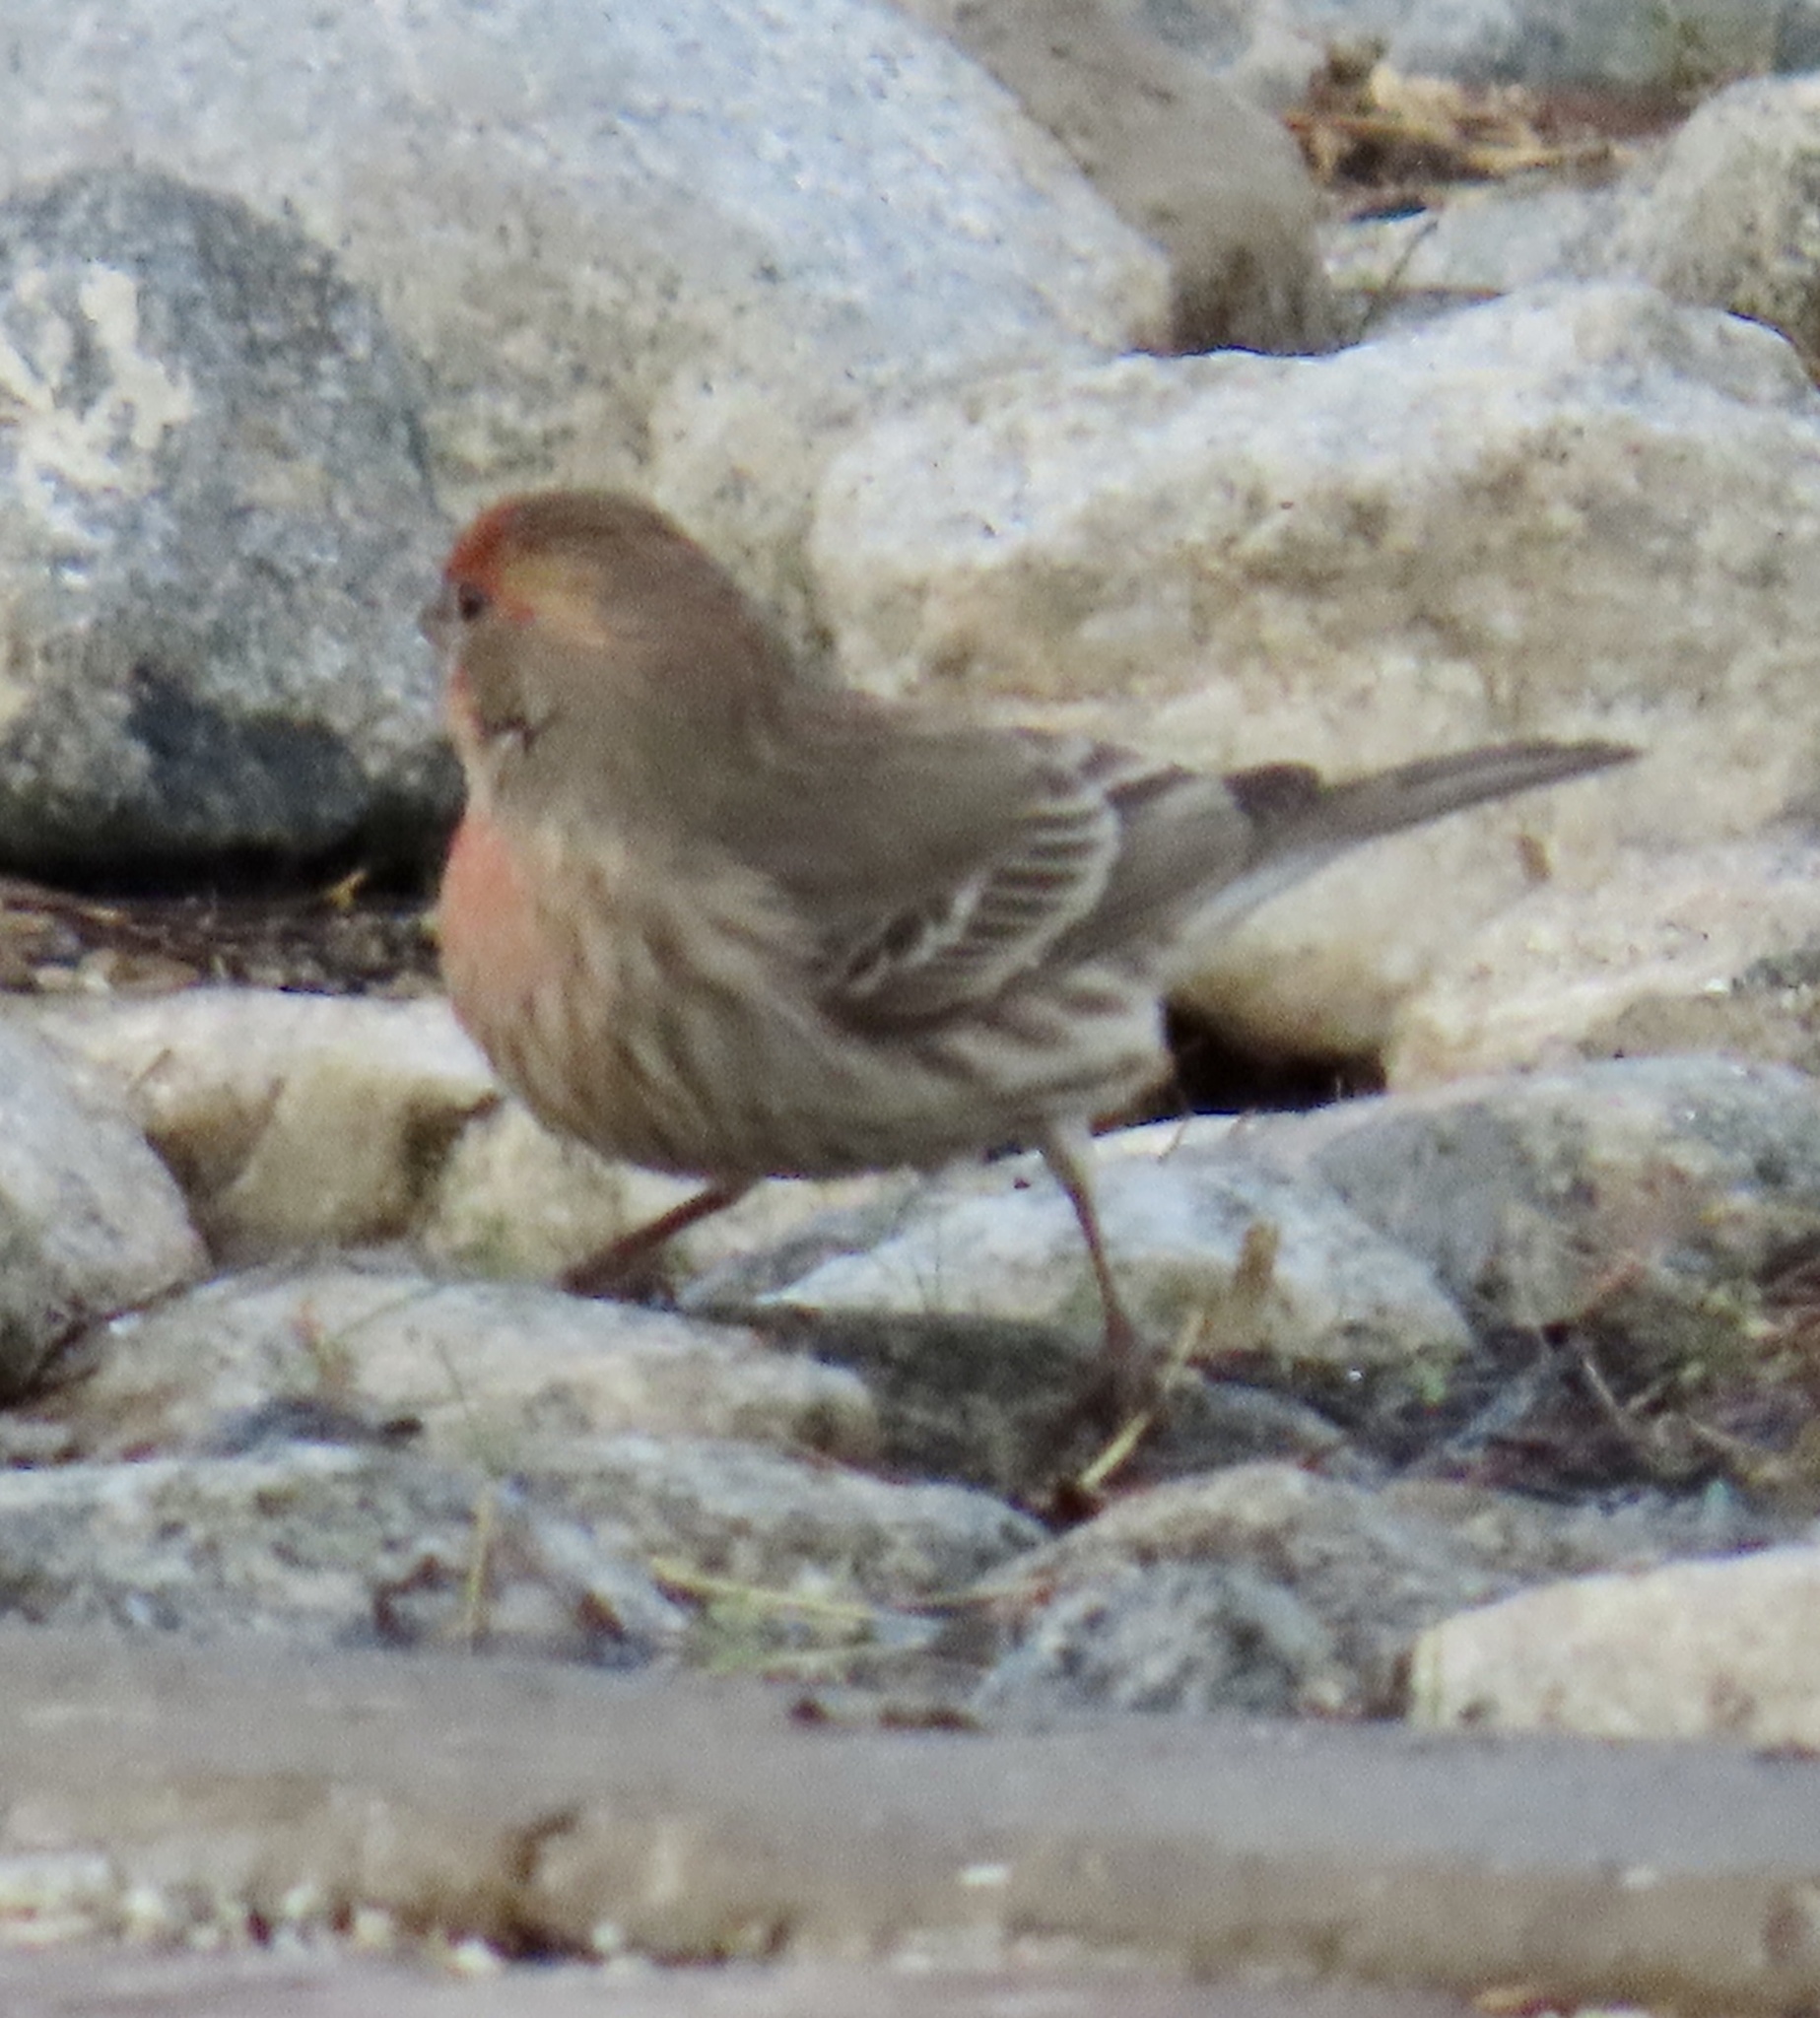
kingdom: Animalia
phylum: Chordata
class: Aves
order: Passeriformes
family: Fringillidae
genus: Haemorhous
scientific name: Haemorhous mexicanus
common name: House finch
